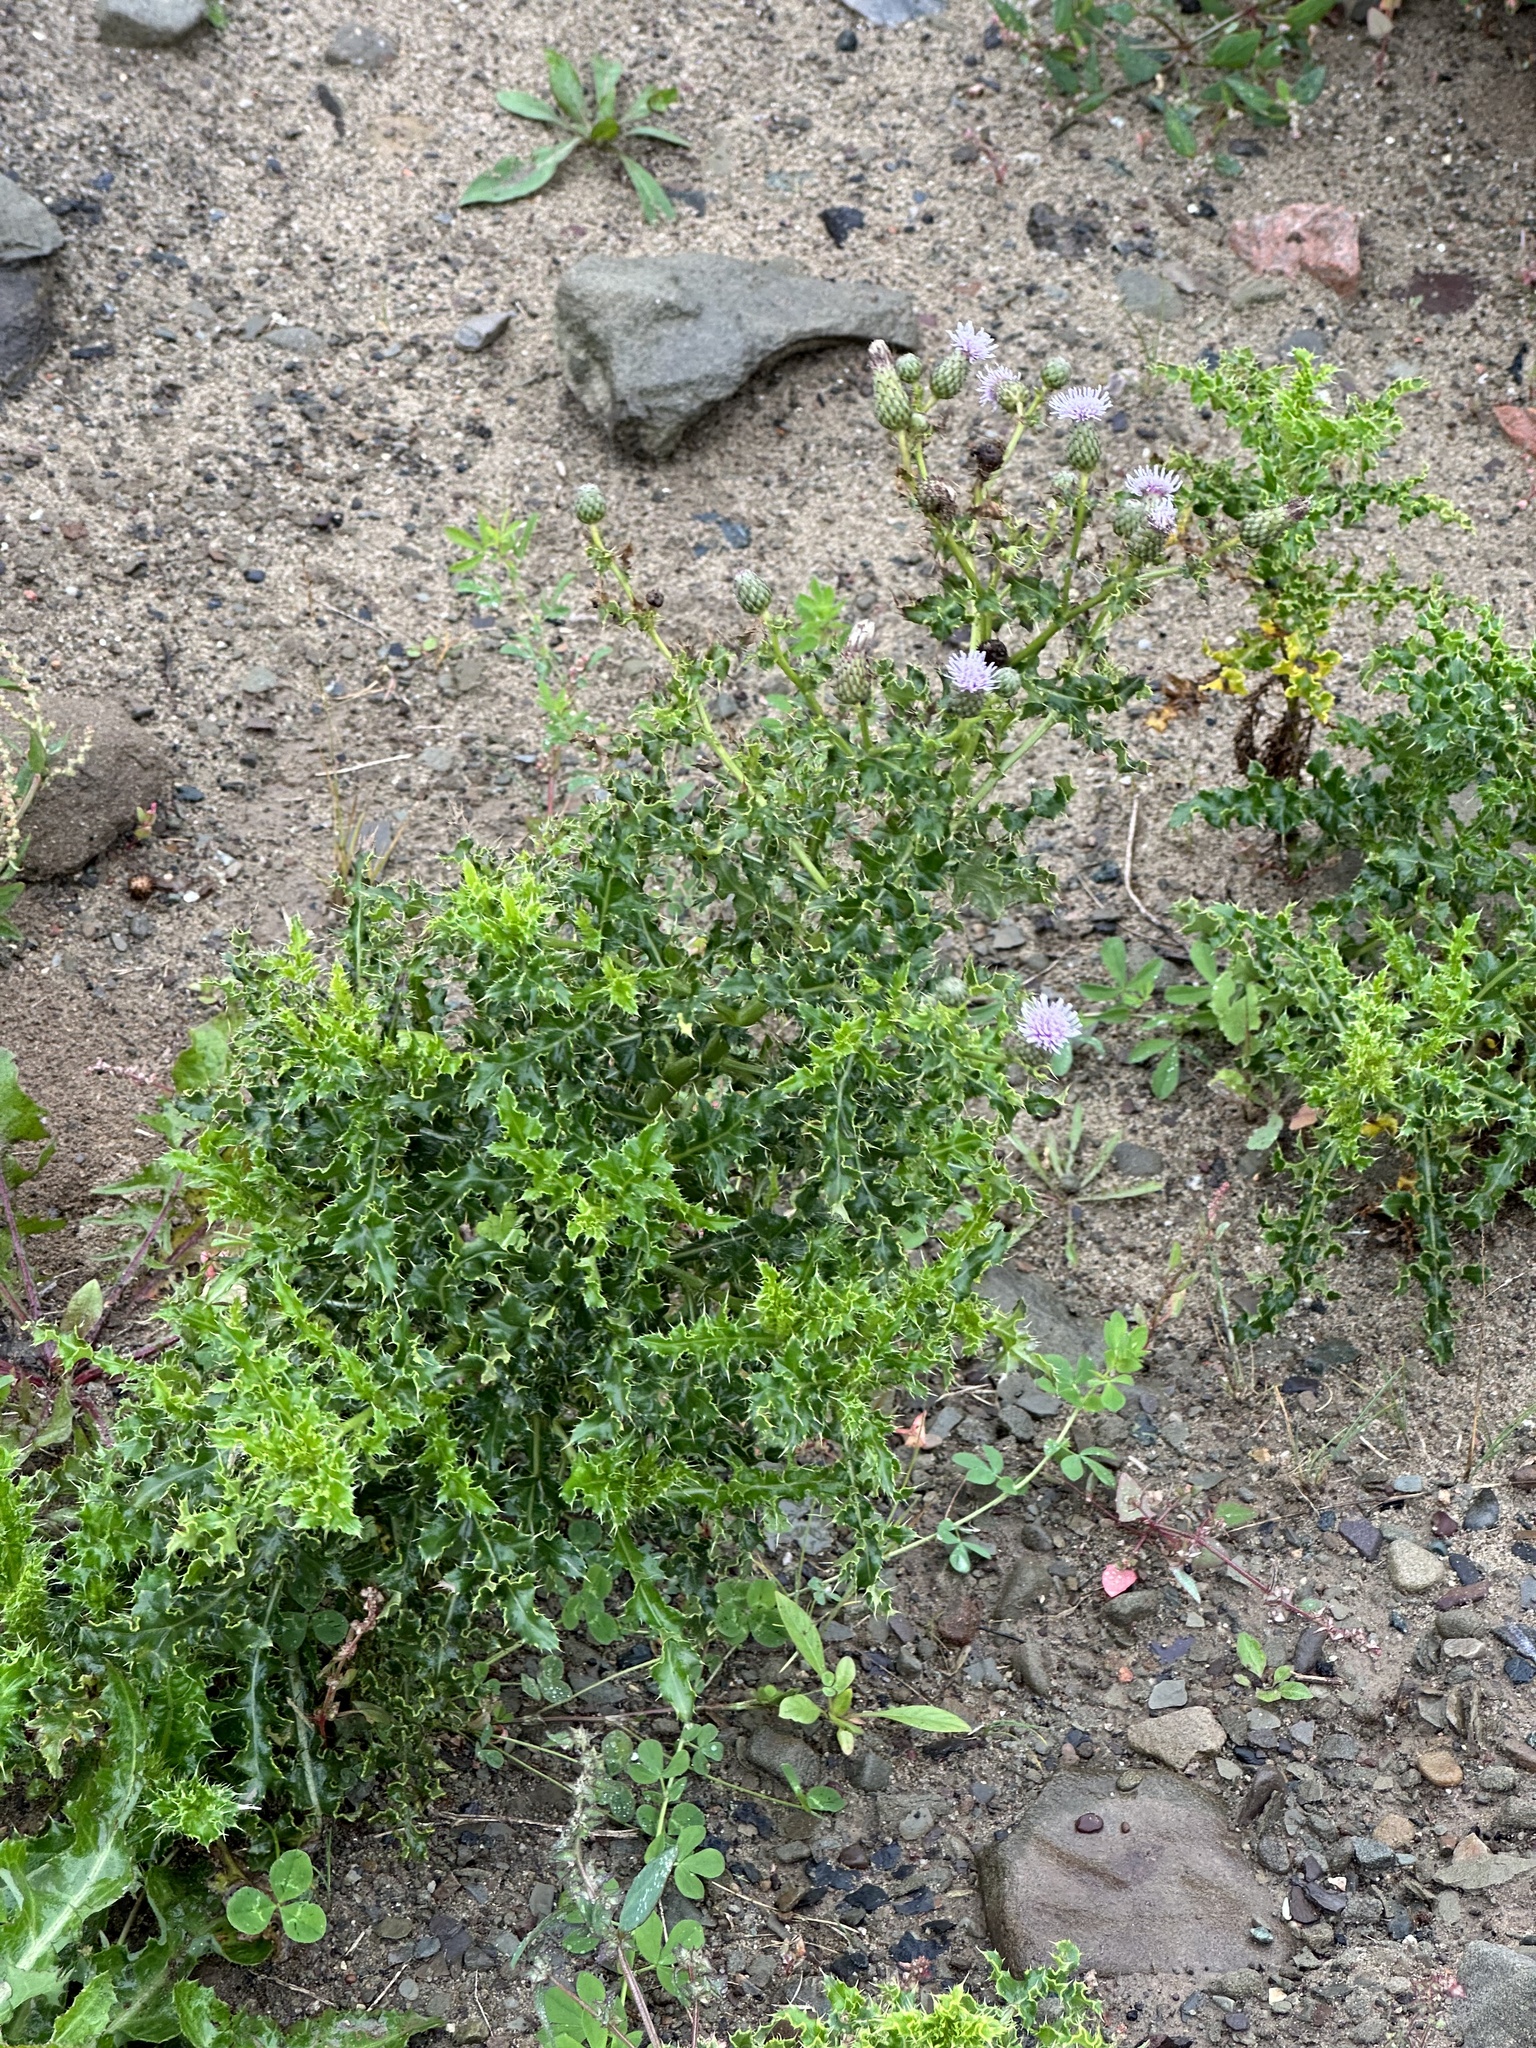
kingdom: Plantae
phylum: Tracheophyta
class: Magnoliopsida
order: Asterales
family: Asteraceae
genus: Cirsium
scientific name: Cirsium arvense
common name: Creeping thistle
